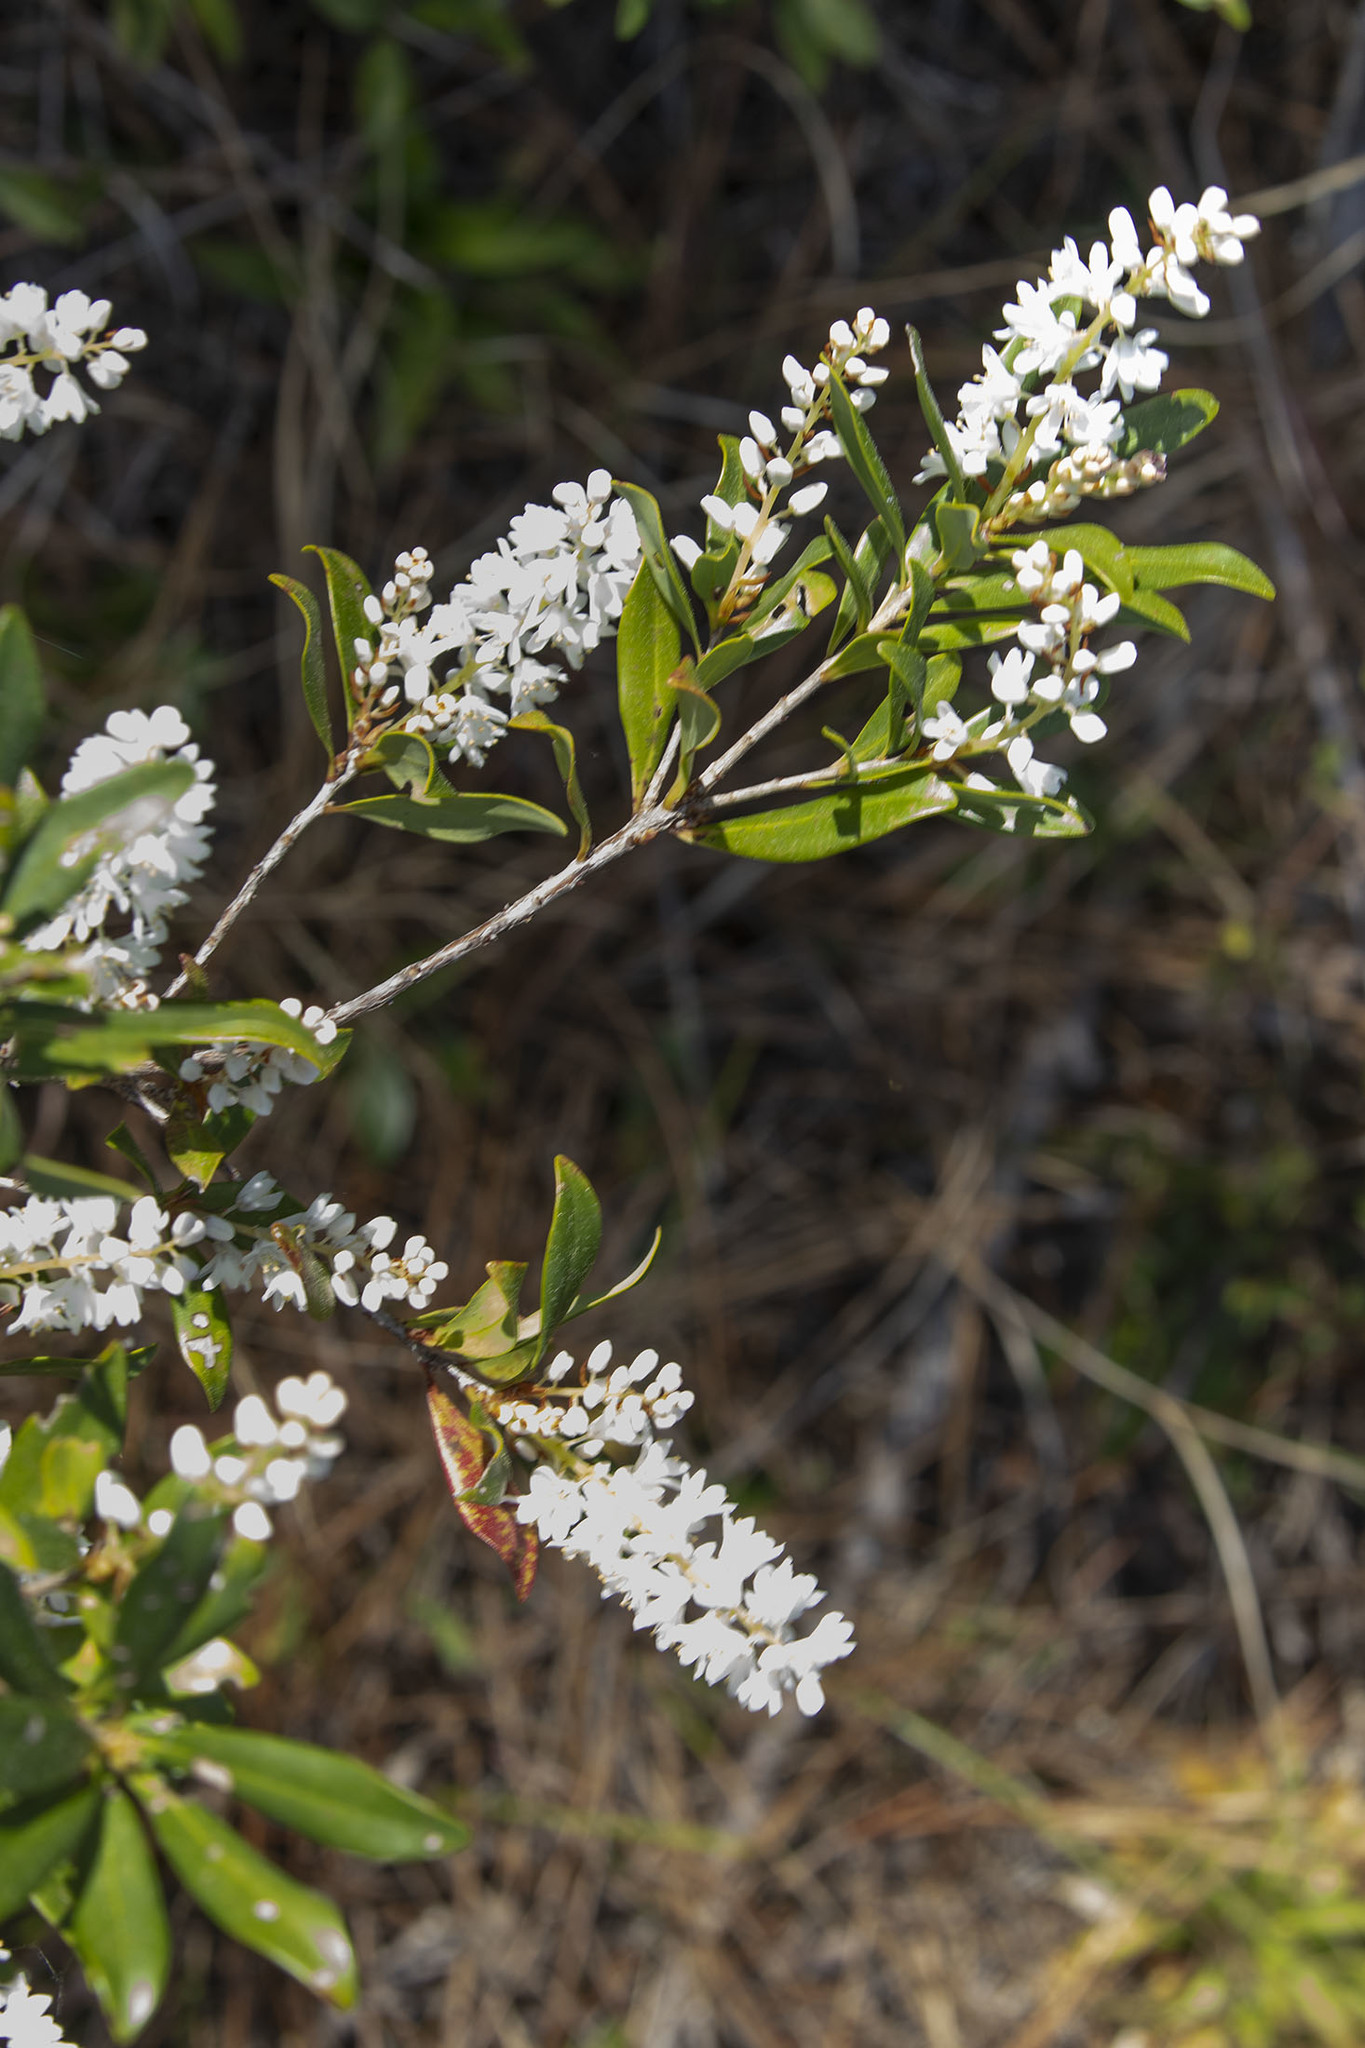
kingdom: Plantae
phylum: Tracheophyta
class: Magnoliopsida
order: Ericales
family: Cyrillaceae
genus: Cliftonia
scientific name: Cliftonia monophylla
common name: Titi
